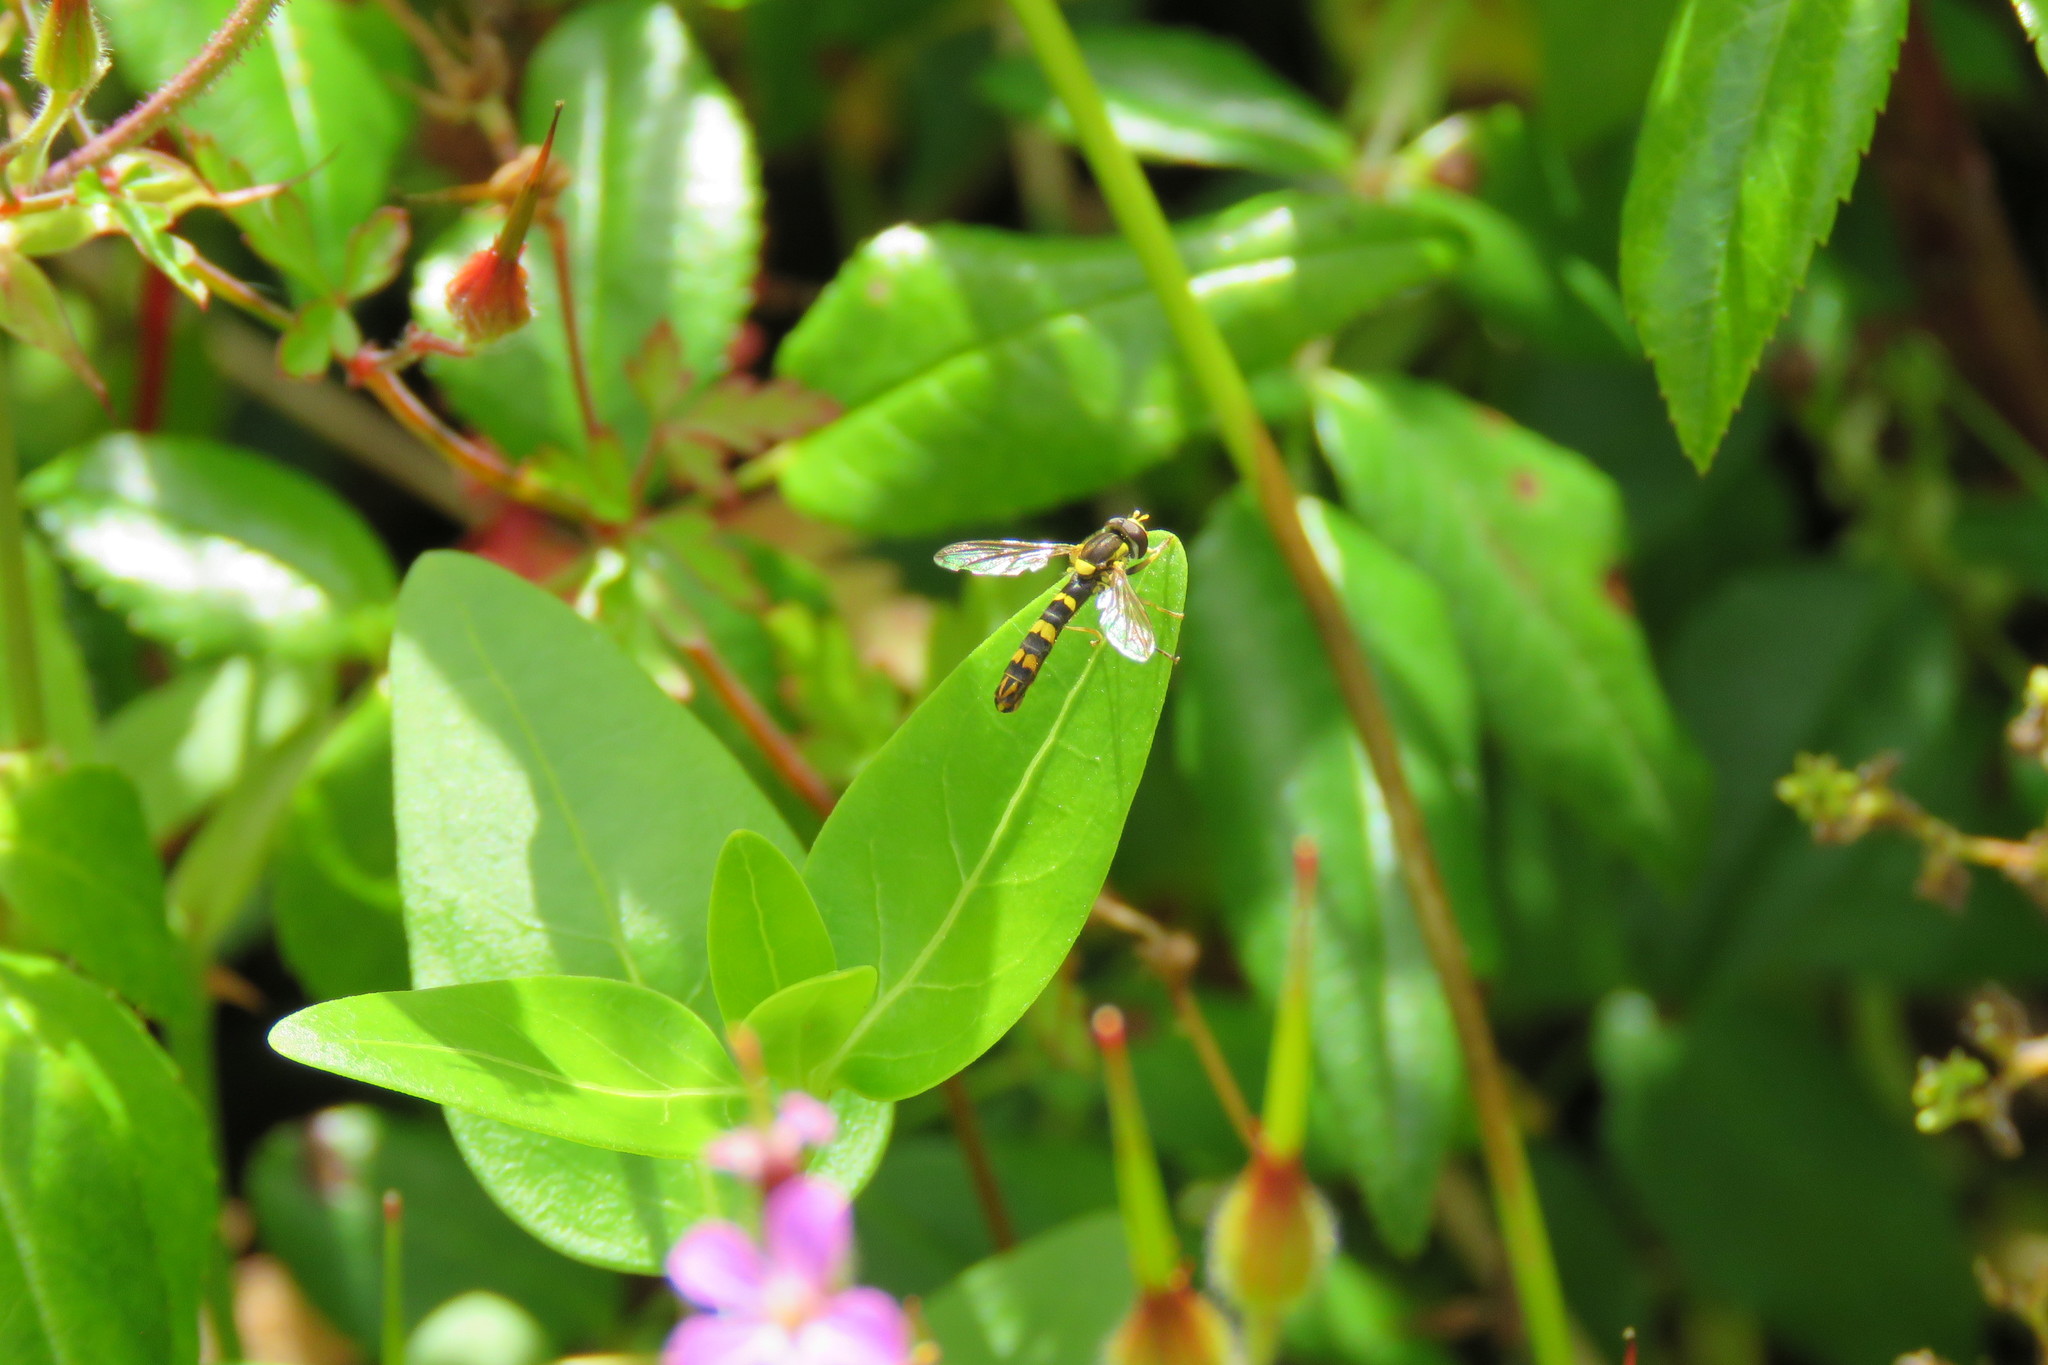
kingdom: Animalia
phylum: Arthropoda
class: Insecta
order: Diptera
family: Syrphidae
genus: Sphaerophoria
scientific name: Sphaerophoria scripta
